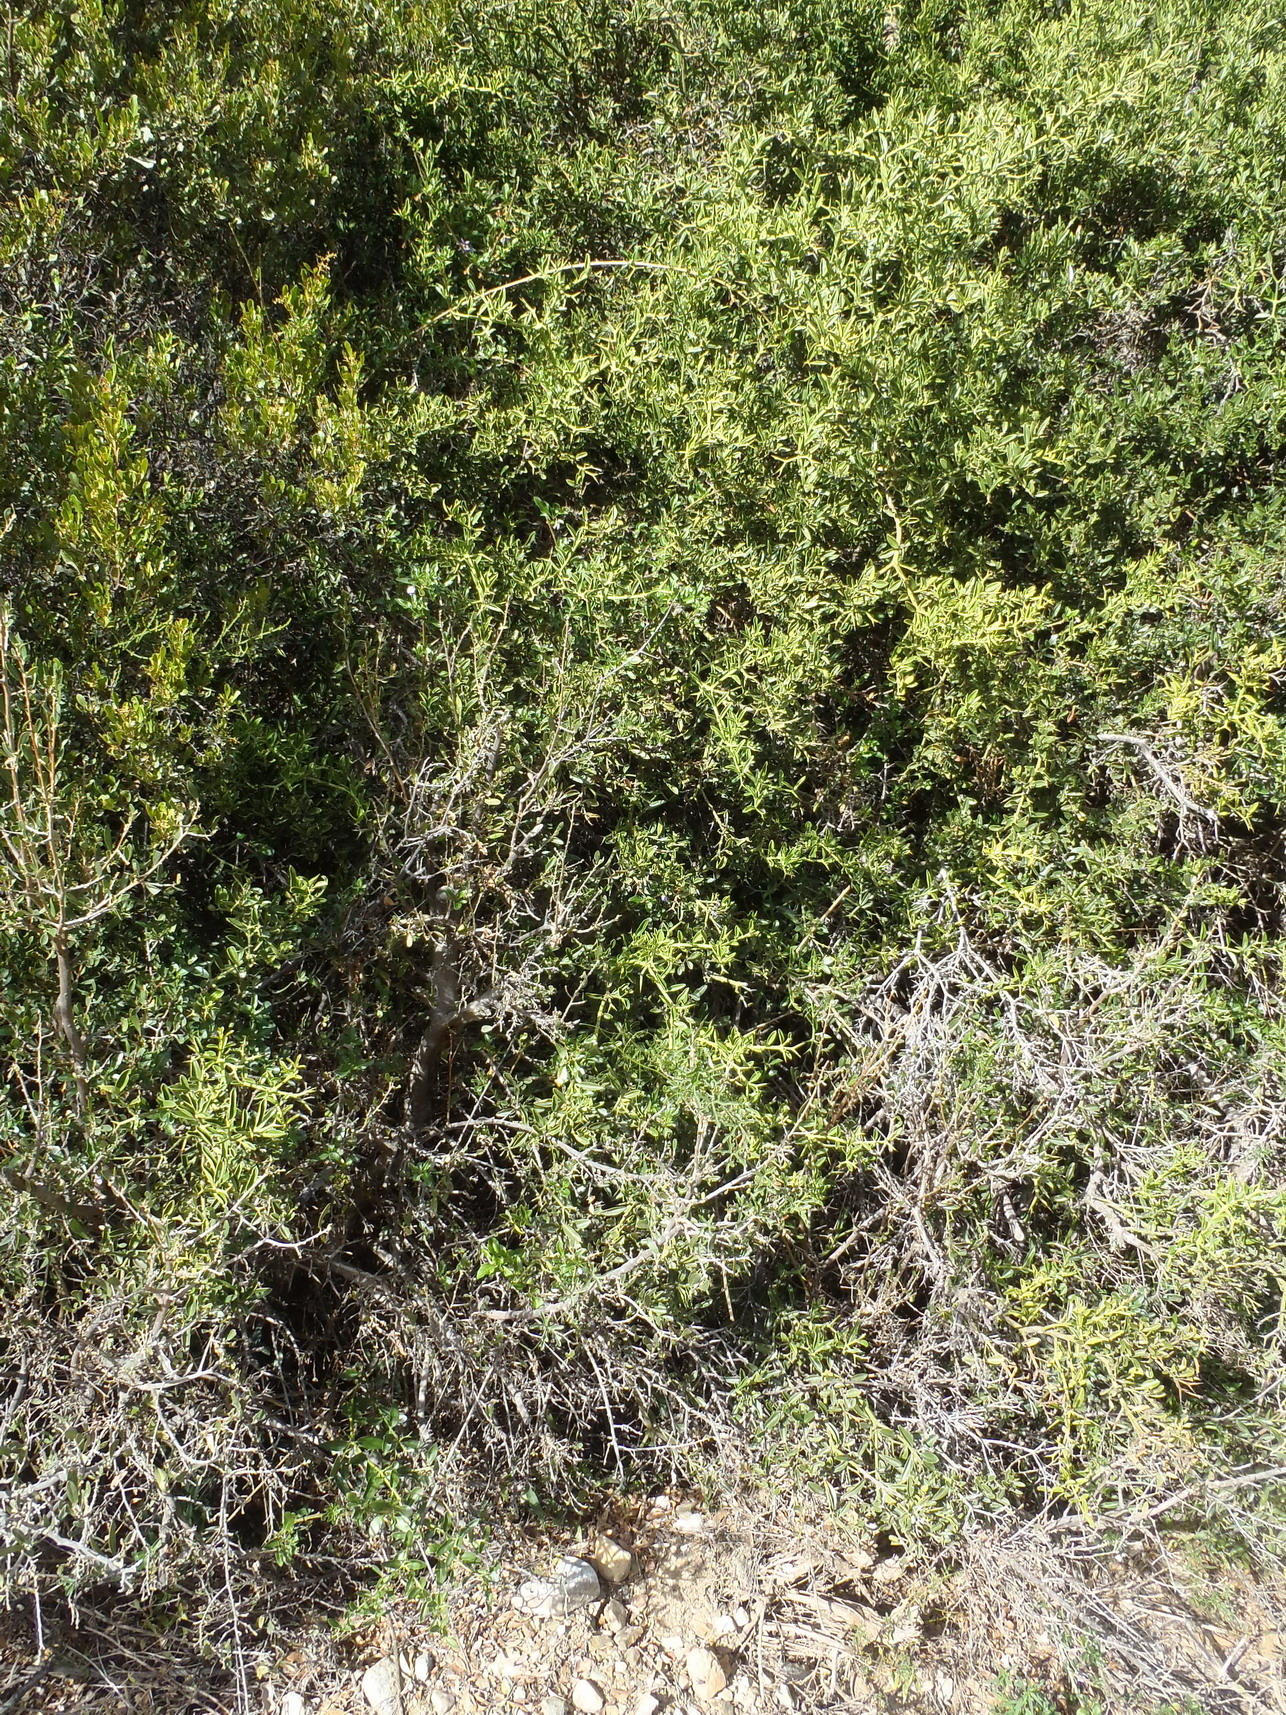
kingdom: Plantae
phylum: Tracheophyta
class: Magnoliopsida
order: Solanales
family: Solanaceae
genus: Solanum
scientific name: Solanum guineense
